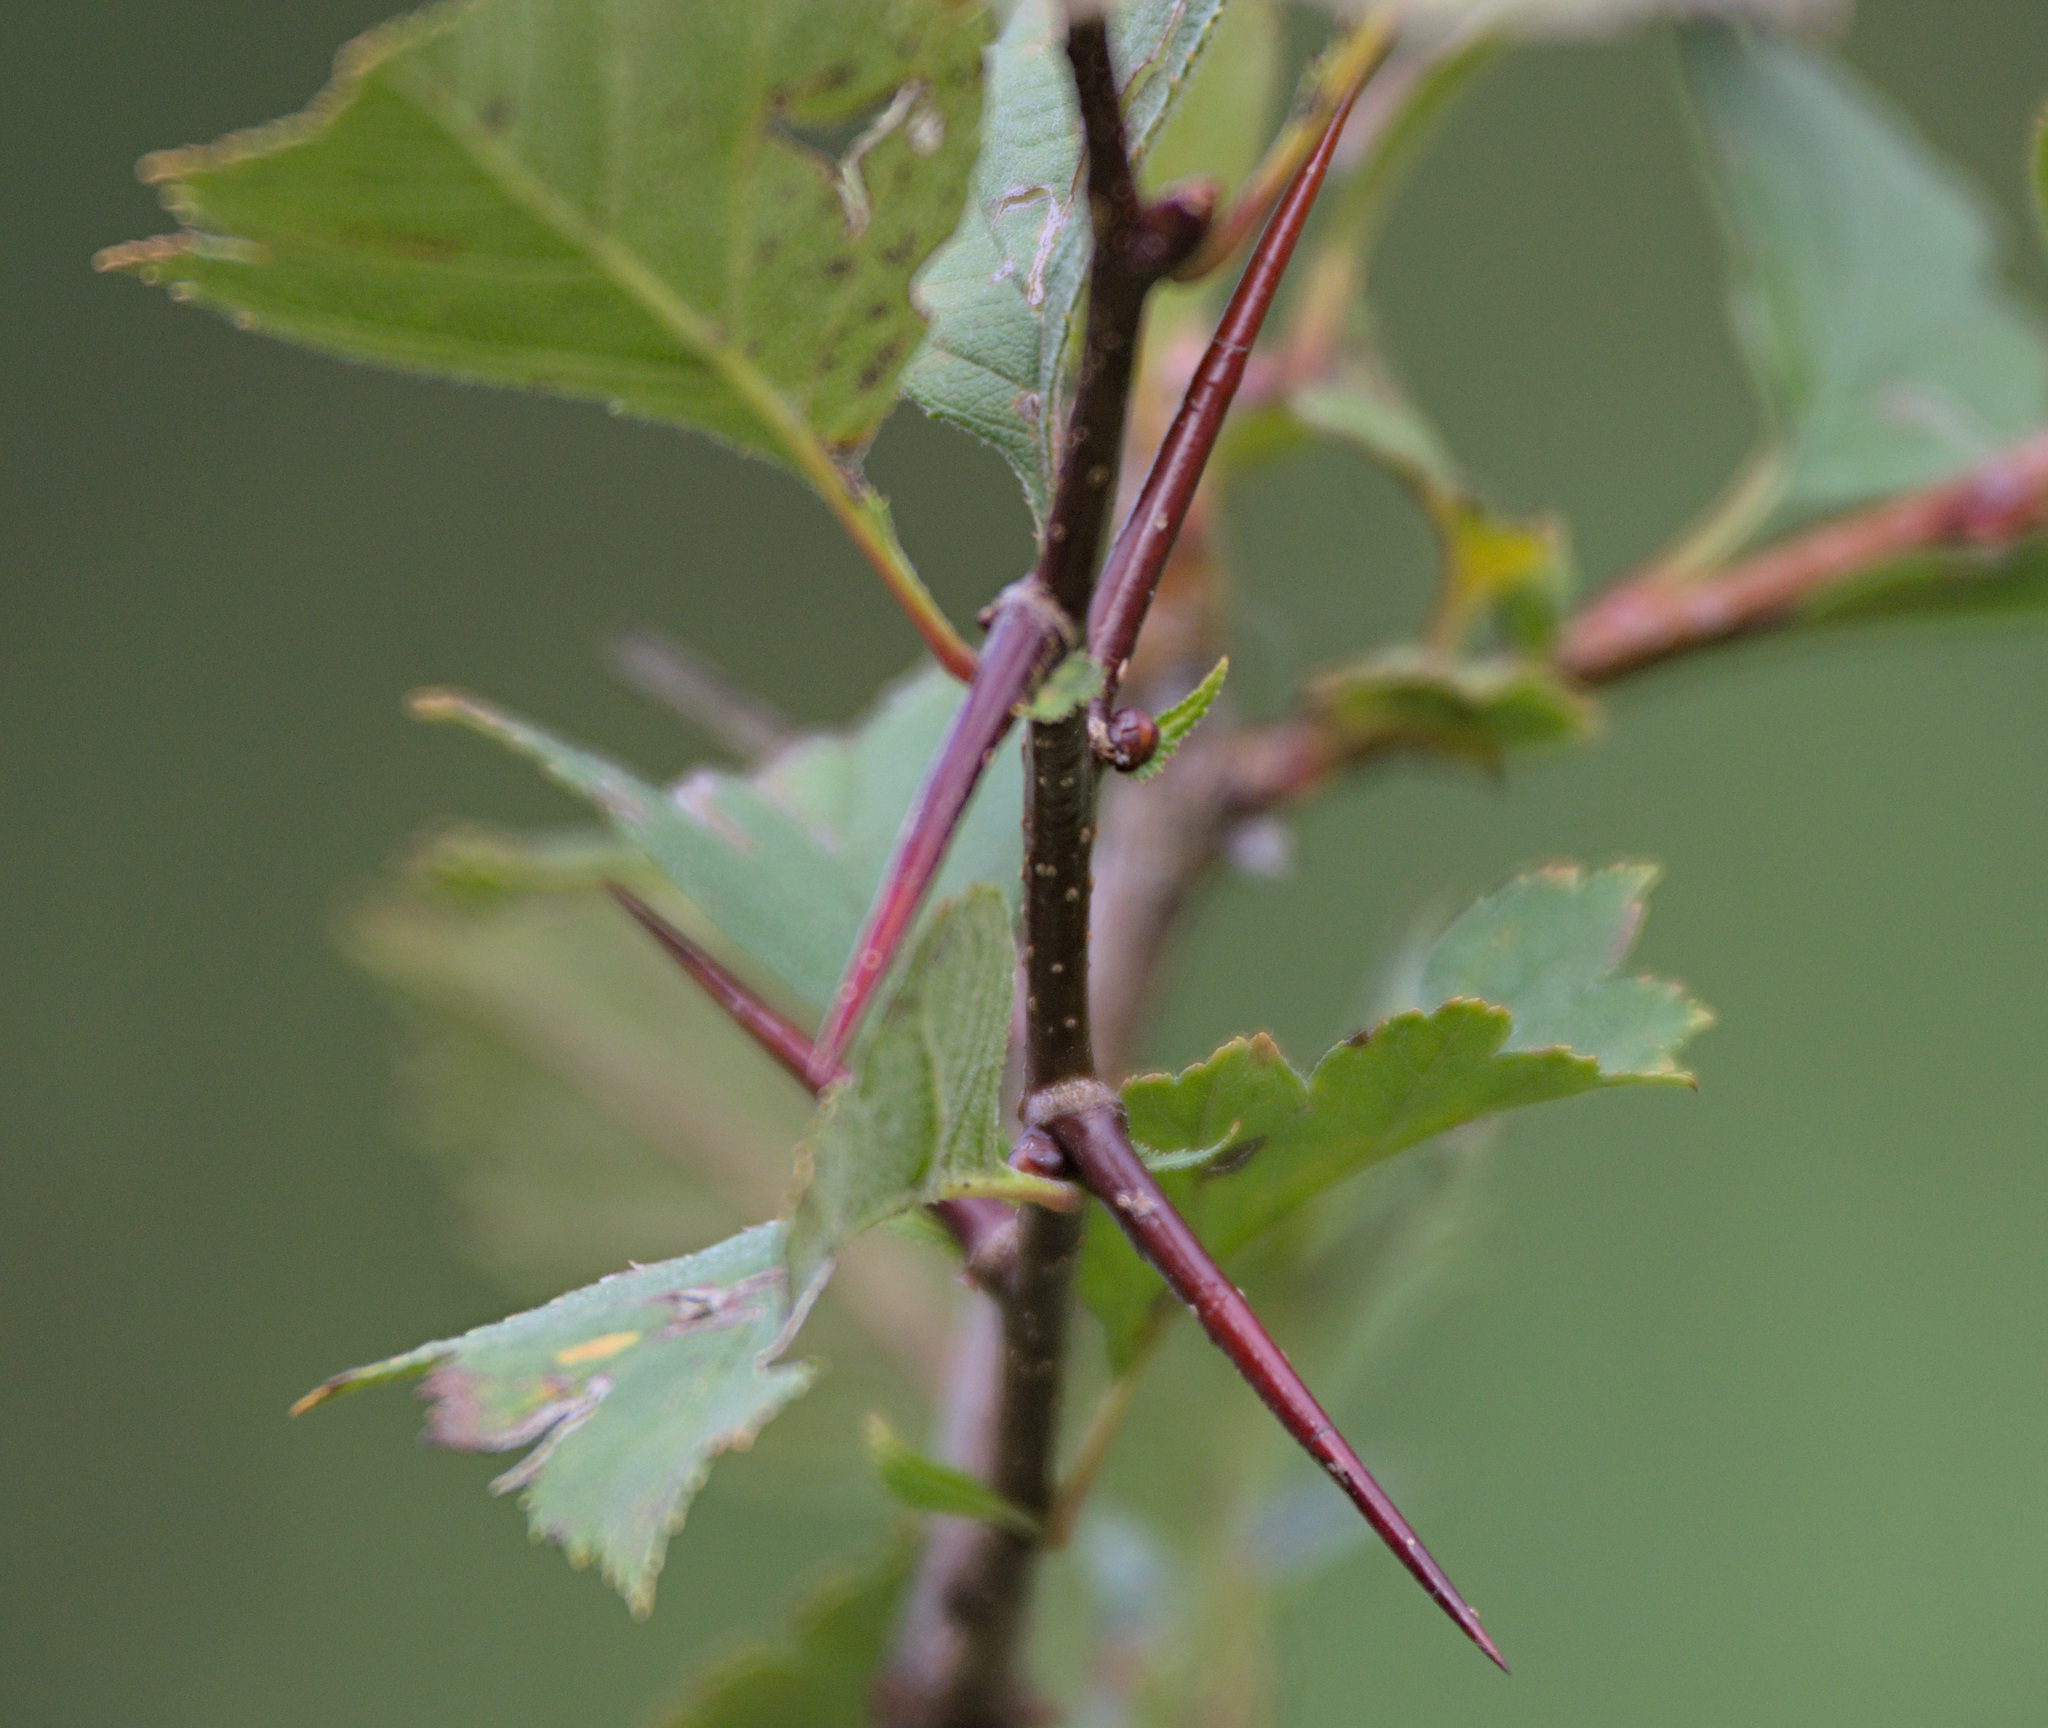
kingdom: Plantae
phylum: Tracheophyta
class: Magnoliopsida
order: Rosales
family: Rosaceae
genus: Crataegus
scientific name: Crataegus sanguinea
